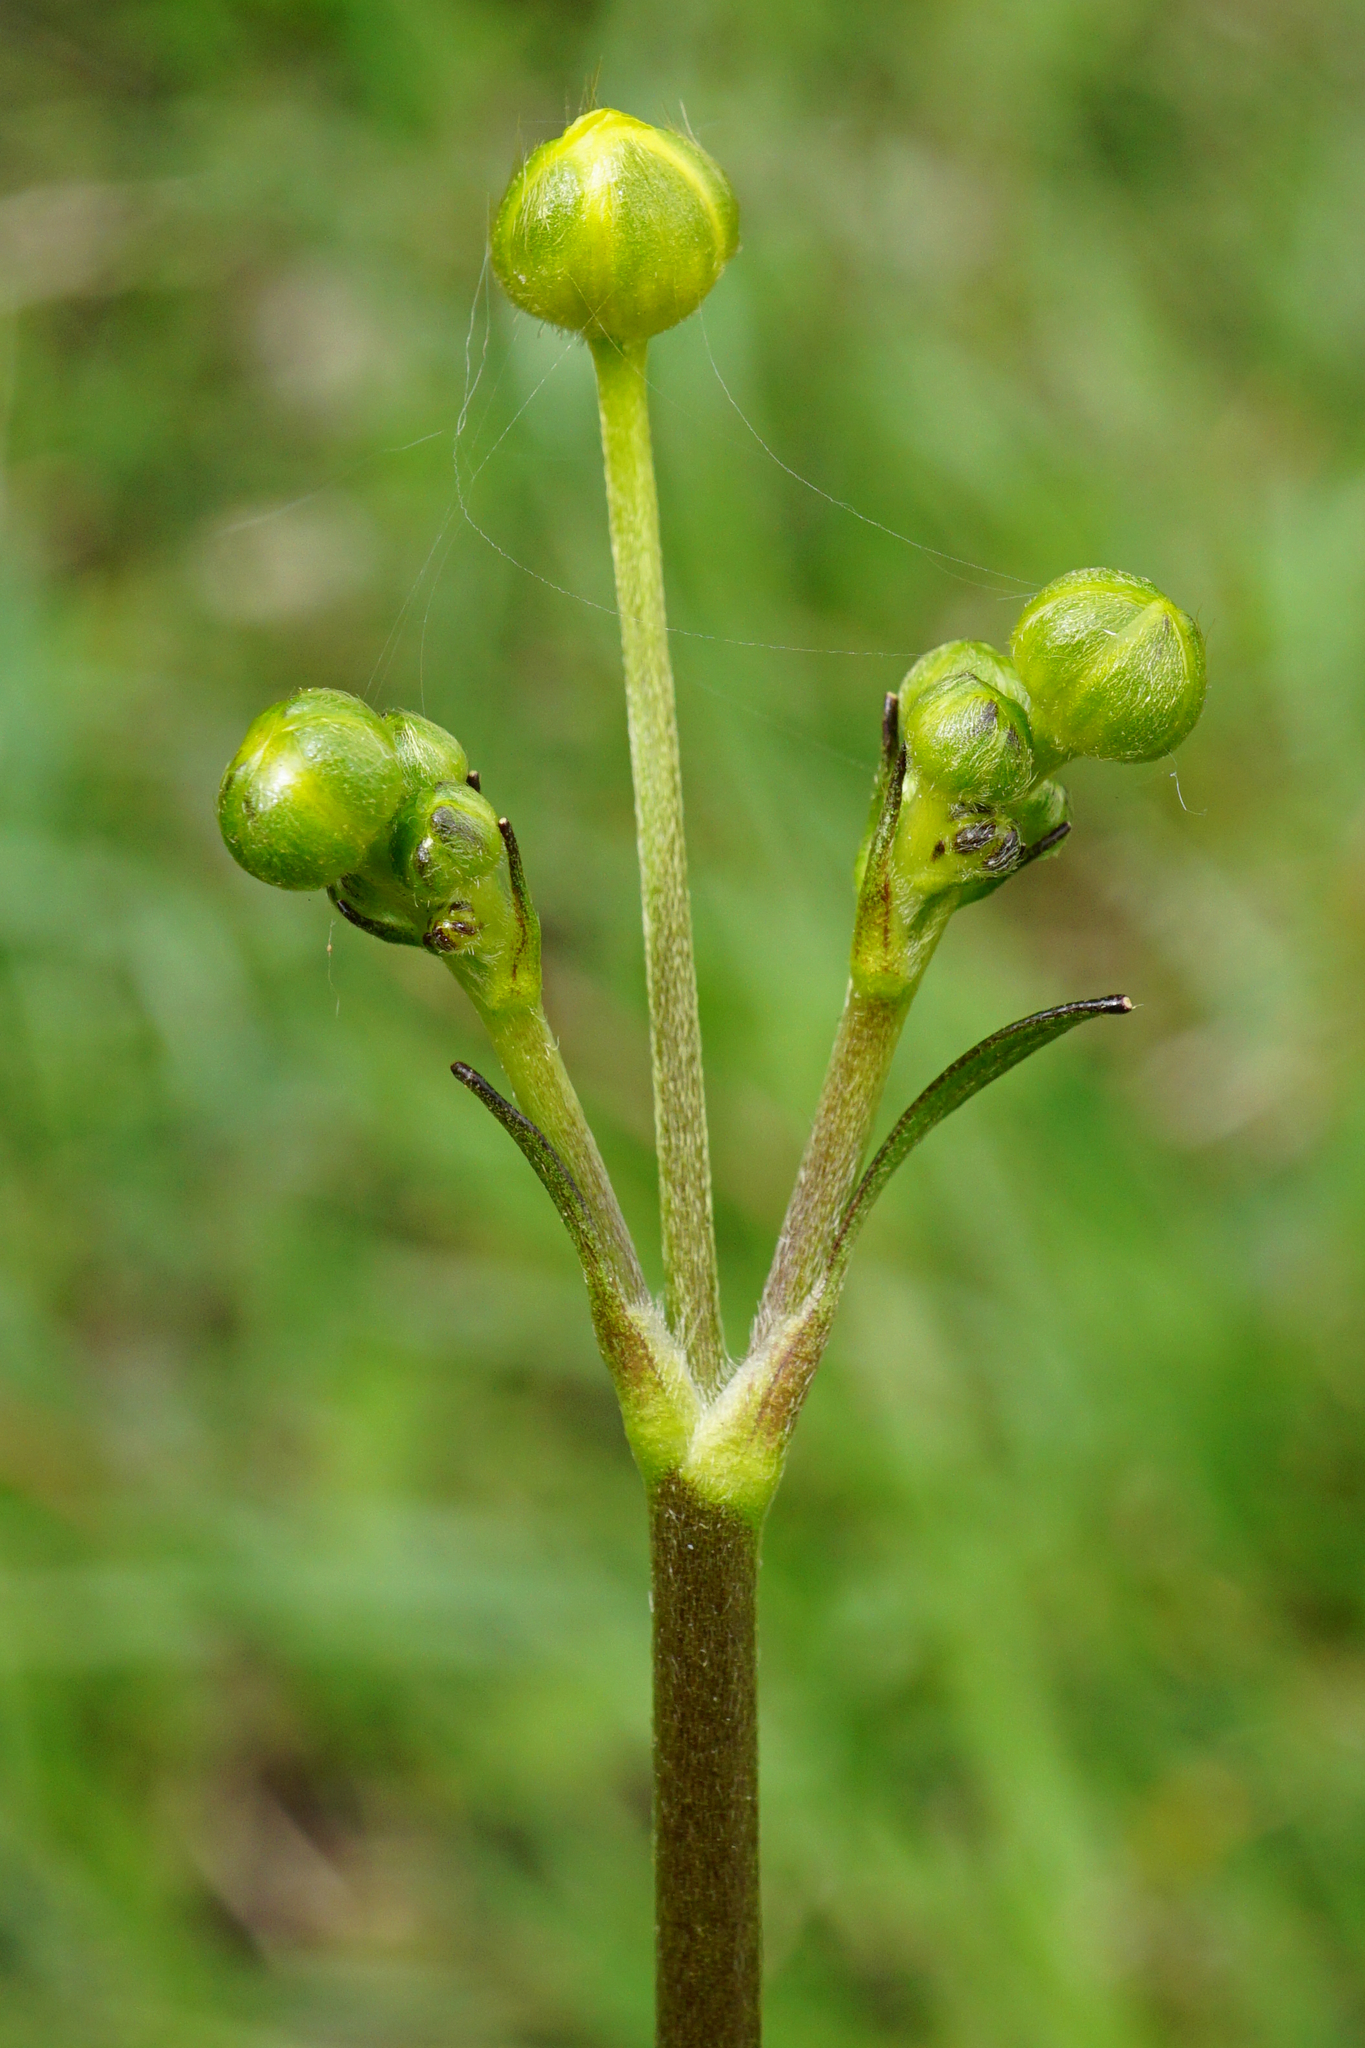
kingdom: Plantae
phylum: Tracheophyta
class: Magnoliopsida
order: Ranunculales
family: Ranunculaceae
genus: Ranunculus
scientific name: Ranunculus acris
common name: Meadow buttercup
